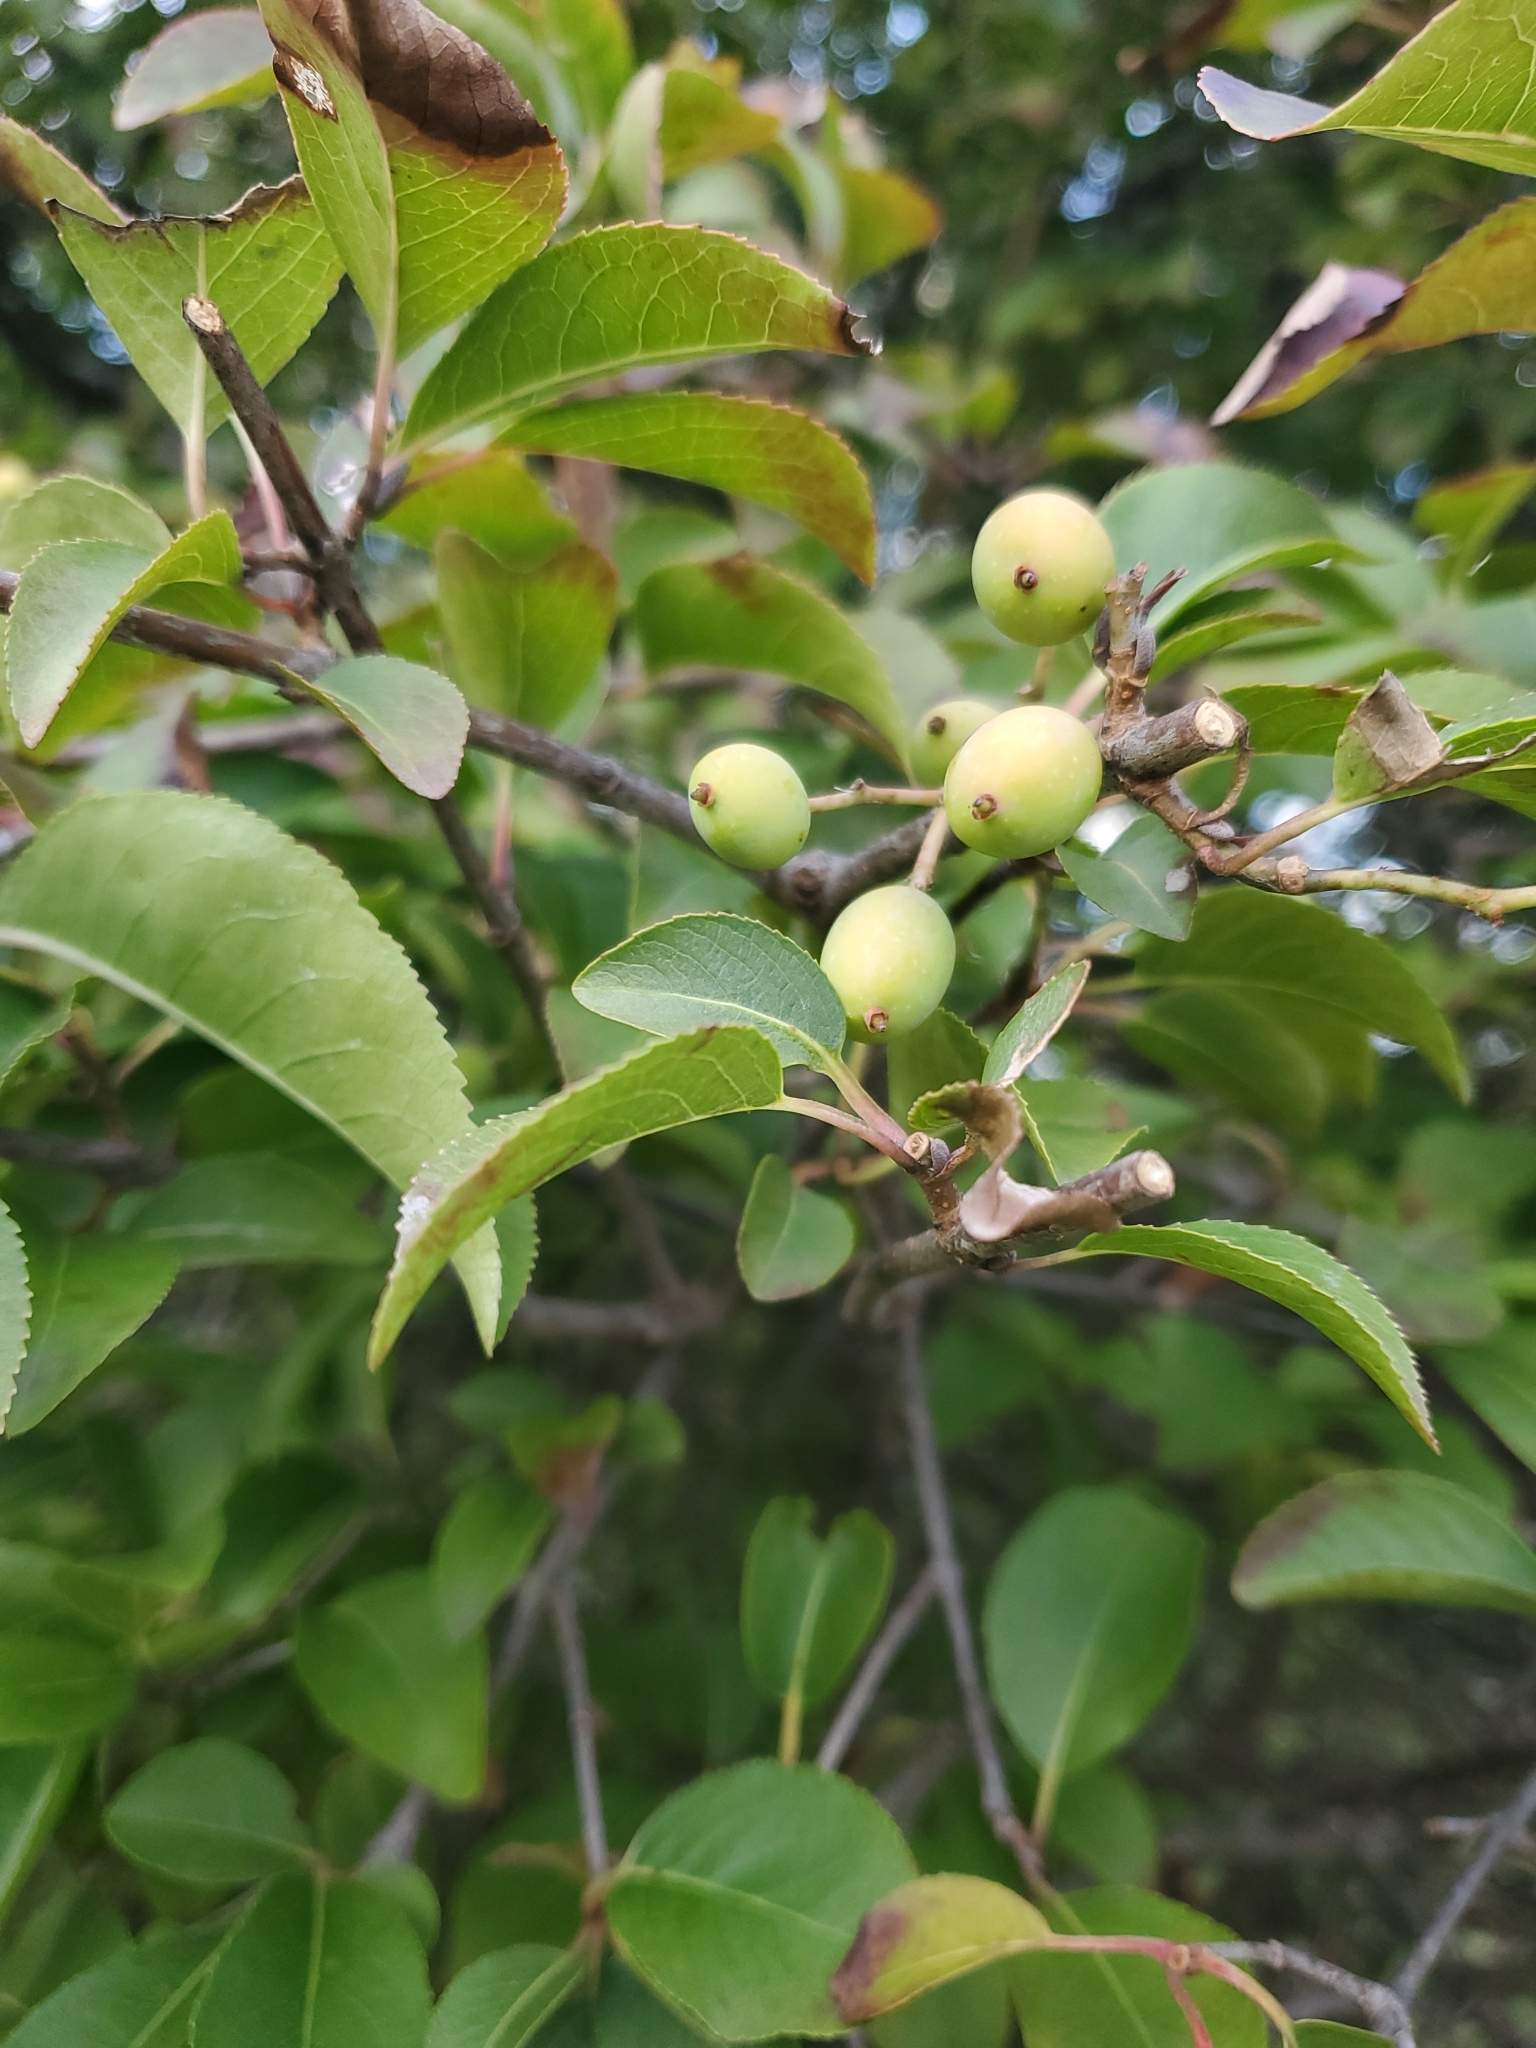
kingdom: Plantae
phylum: Tracheophyta
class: Magnoliopsida
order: Dipsacales
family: Viburnaceae
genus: Viburnum
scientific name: Viburnum prunifolium
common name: Black haw
